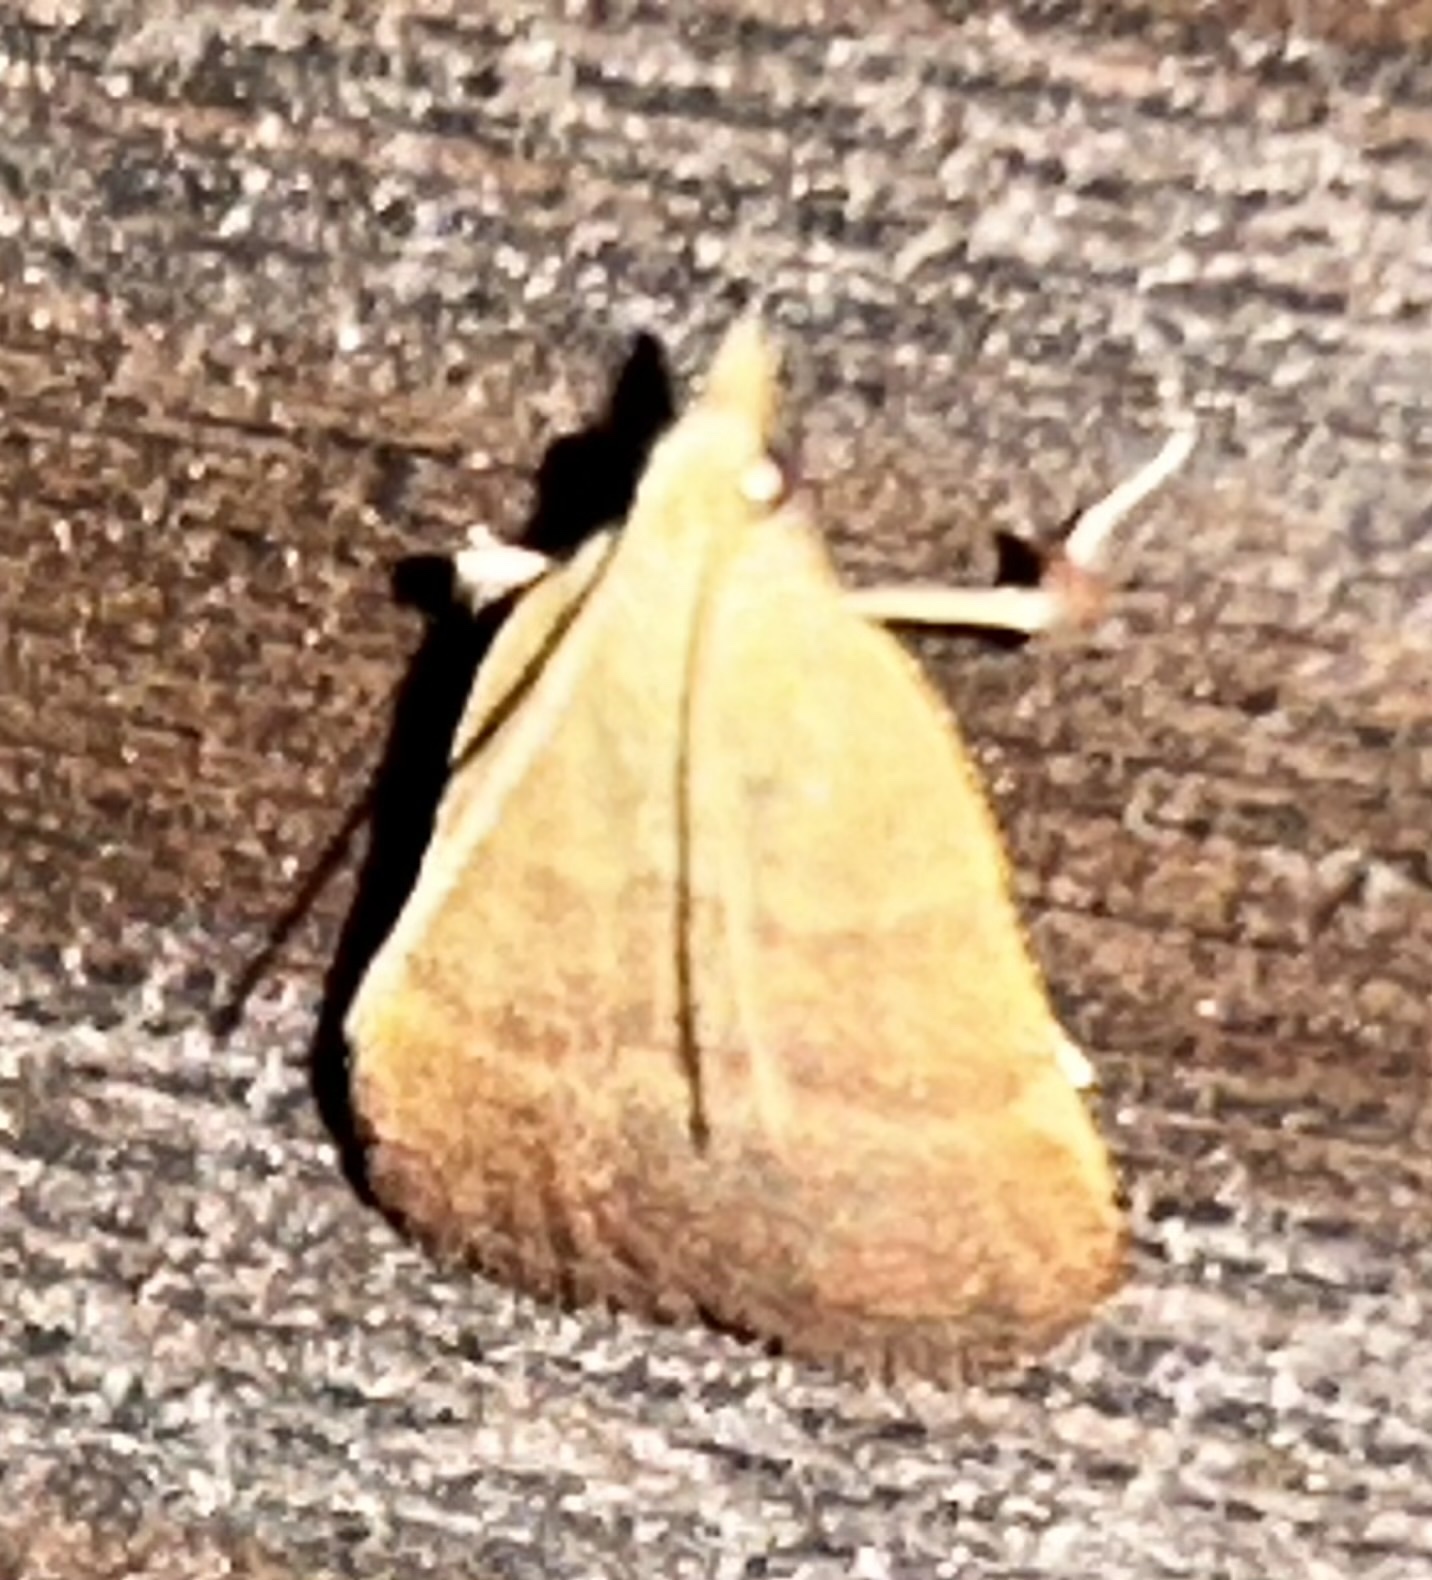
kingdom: Animalia
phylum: Arthropoda
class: Insecta
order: Lepidoptera
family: Pyralidae
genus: Condylolomia
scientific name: Condylolomia participialis
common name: Drab condylolomia moth
